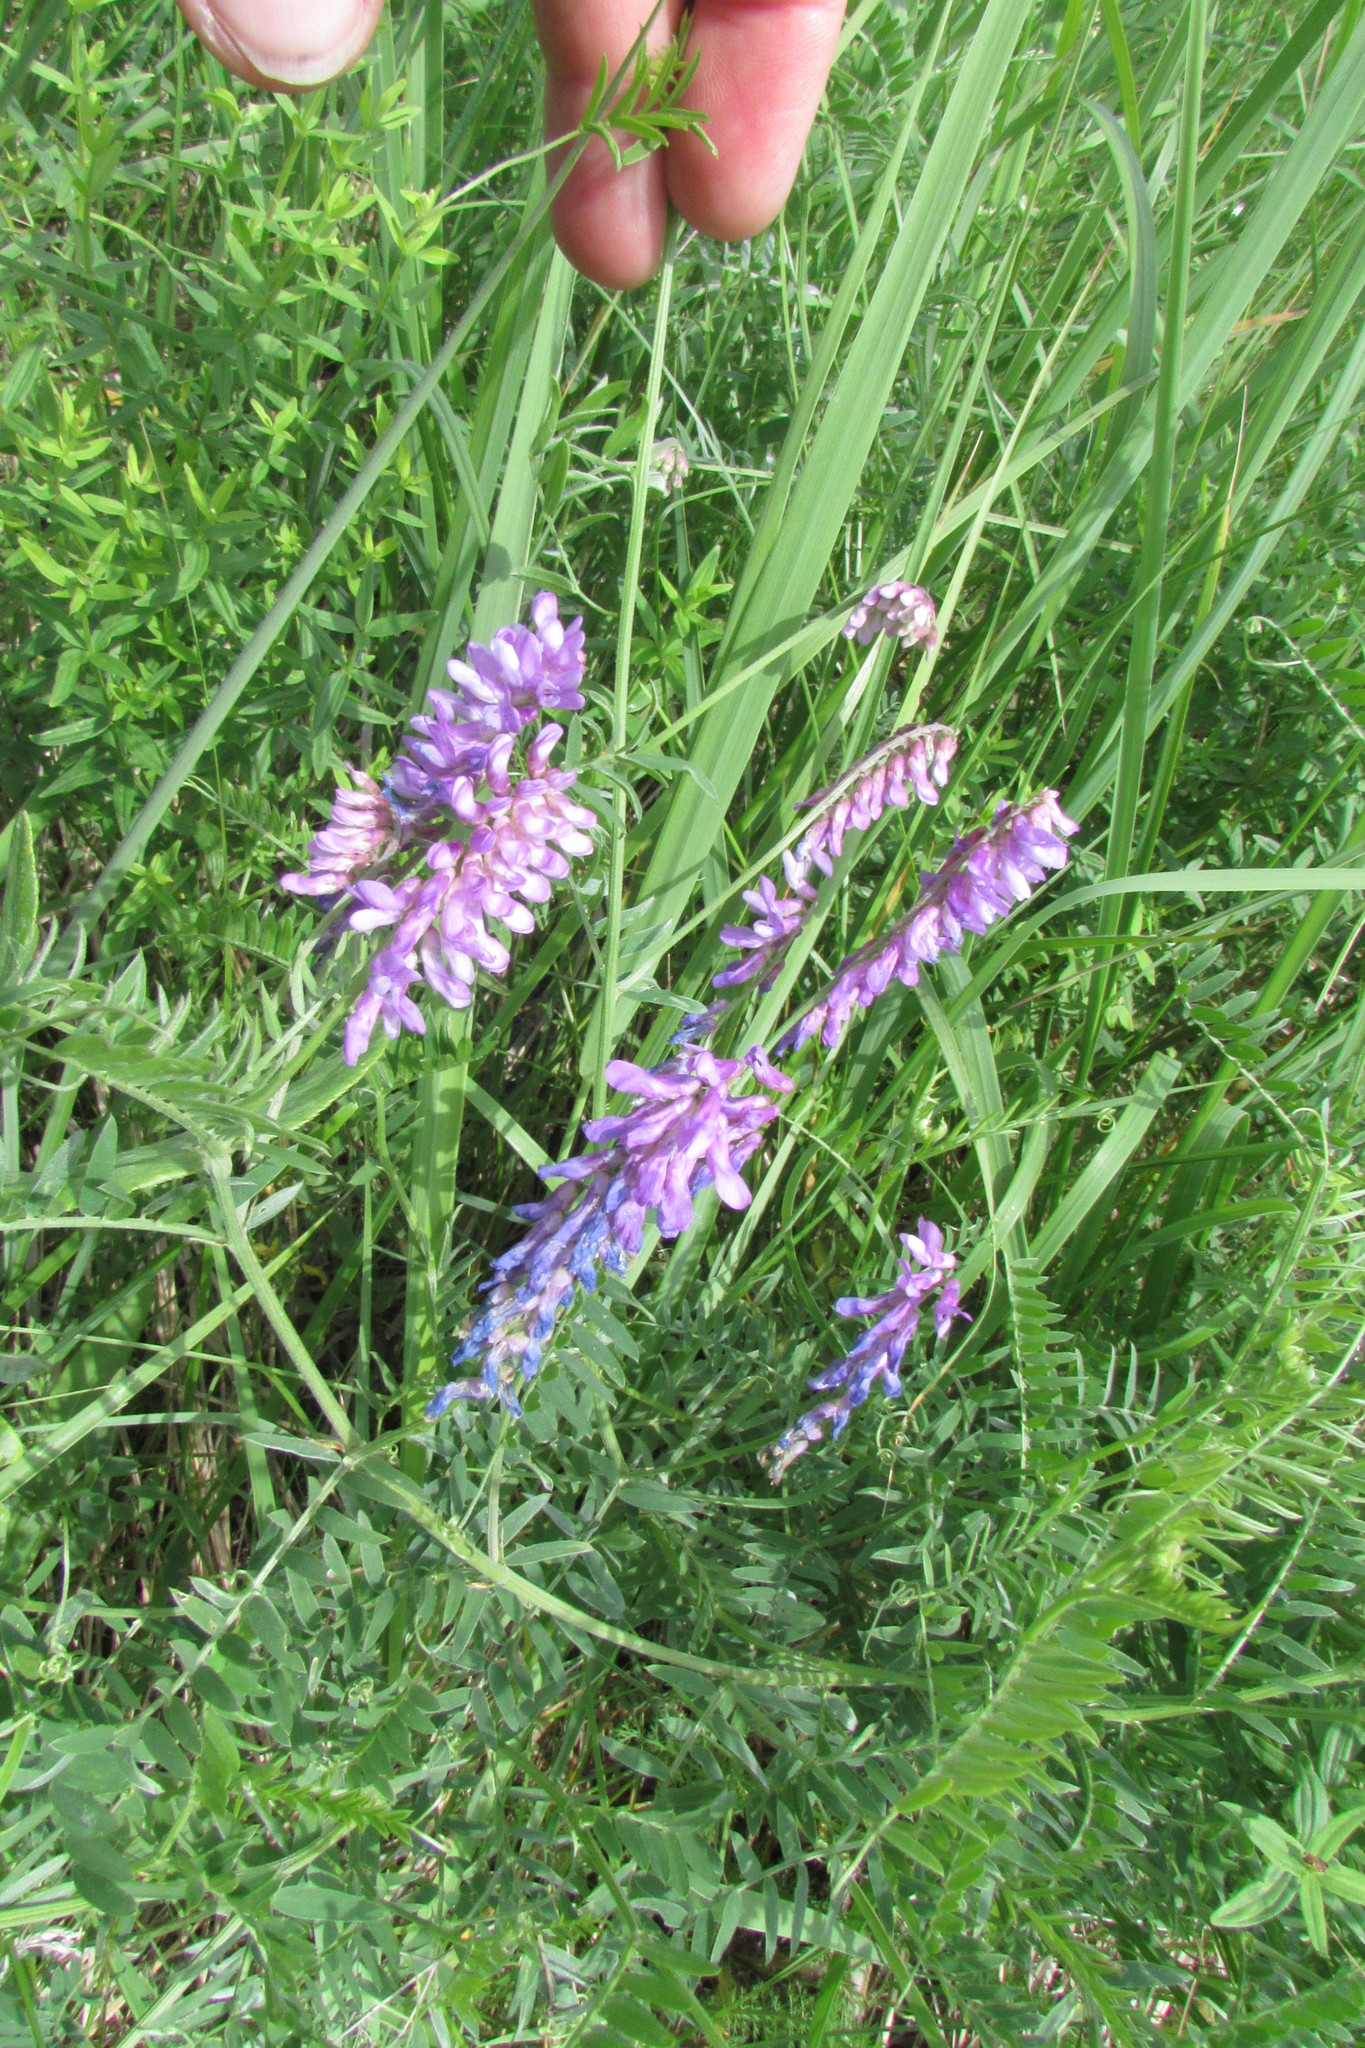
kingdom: Plantae
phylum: Tracheophyta
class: Magnoliopsida
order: Fabales
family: Fabaceae
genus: Vicia
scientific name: Vicia cracca
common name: Bird vetch
